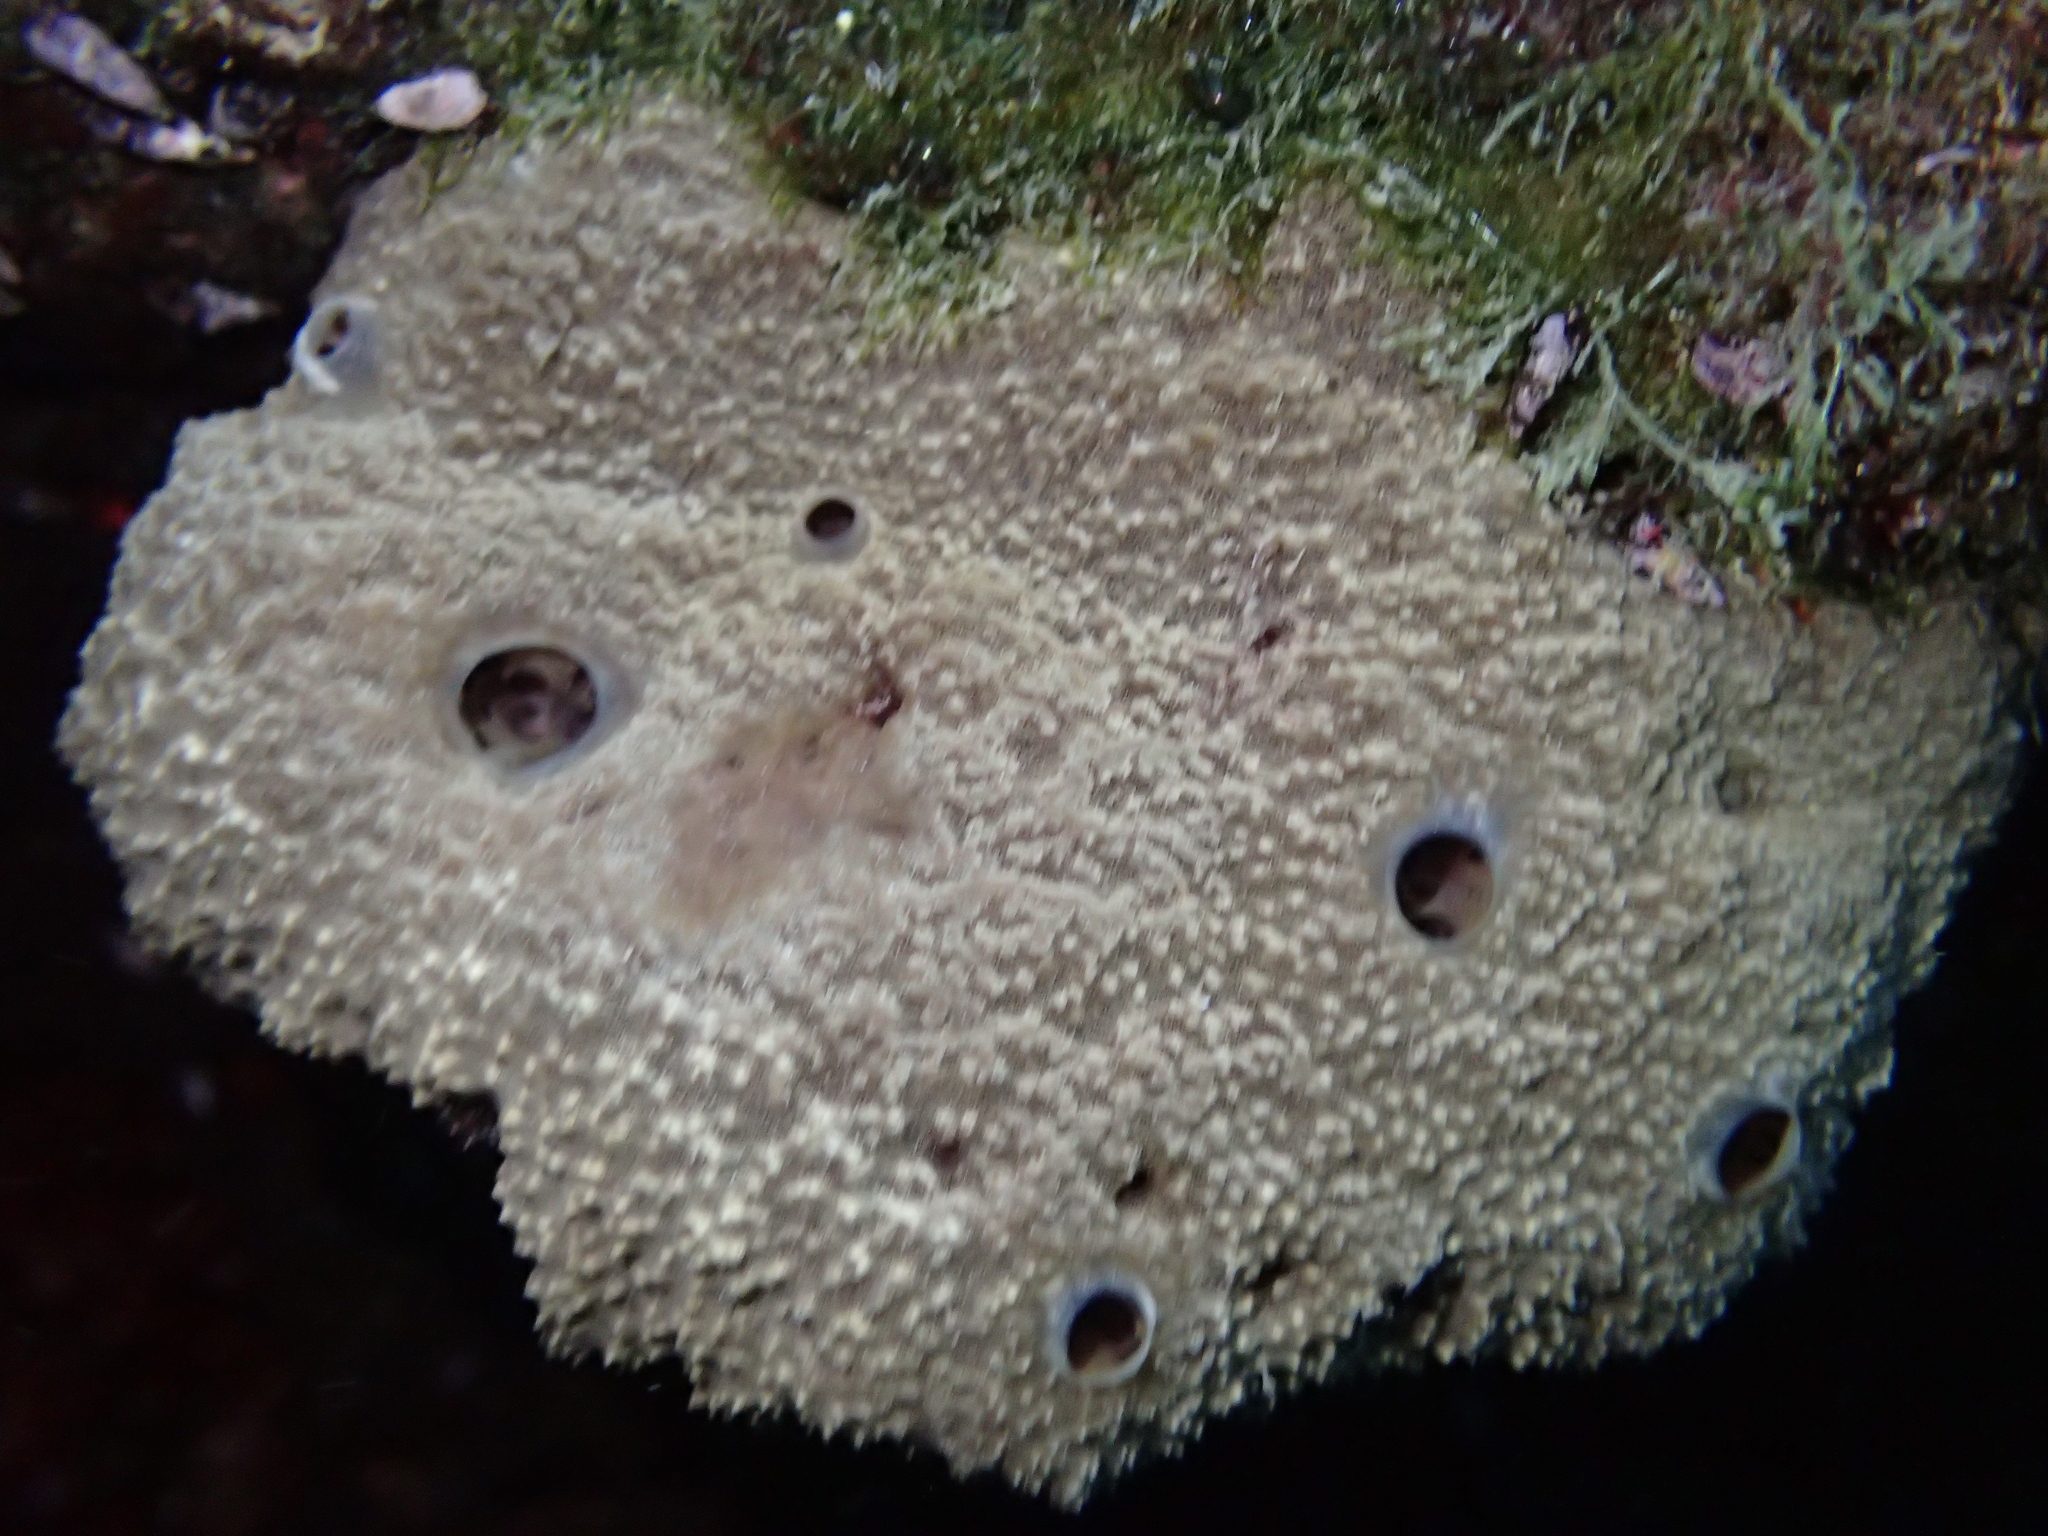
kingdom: Animalia
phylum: Porifera
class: Demospongiae
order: Dictyoceratida
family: Irciniidae
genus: Sarcotragus
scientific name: Sarcotragus fasciculatus
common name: Stinker sponge
